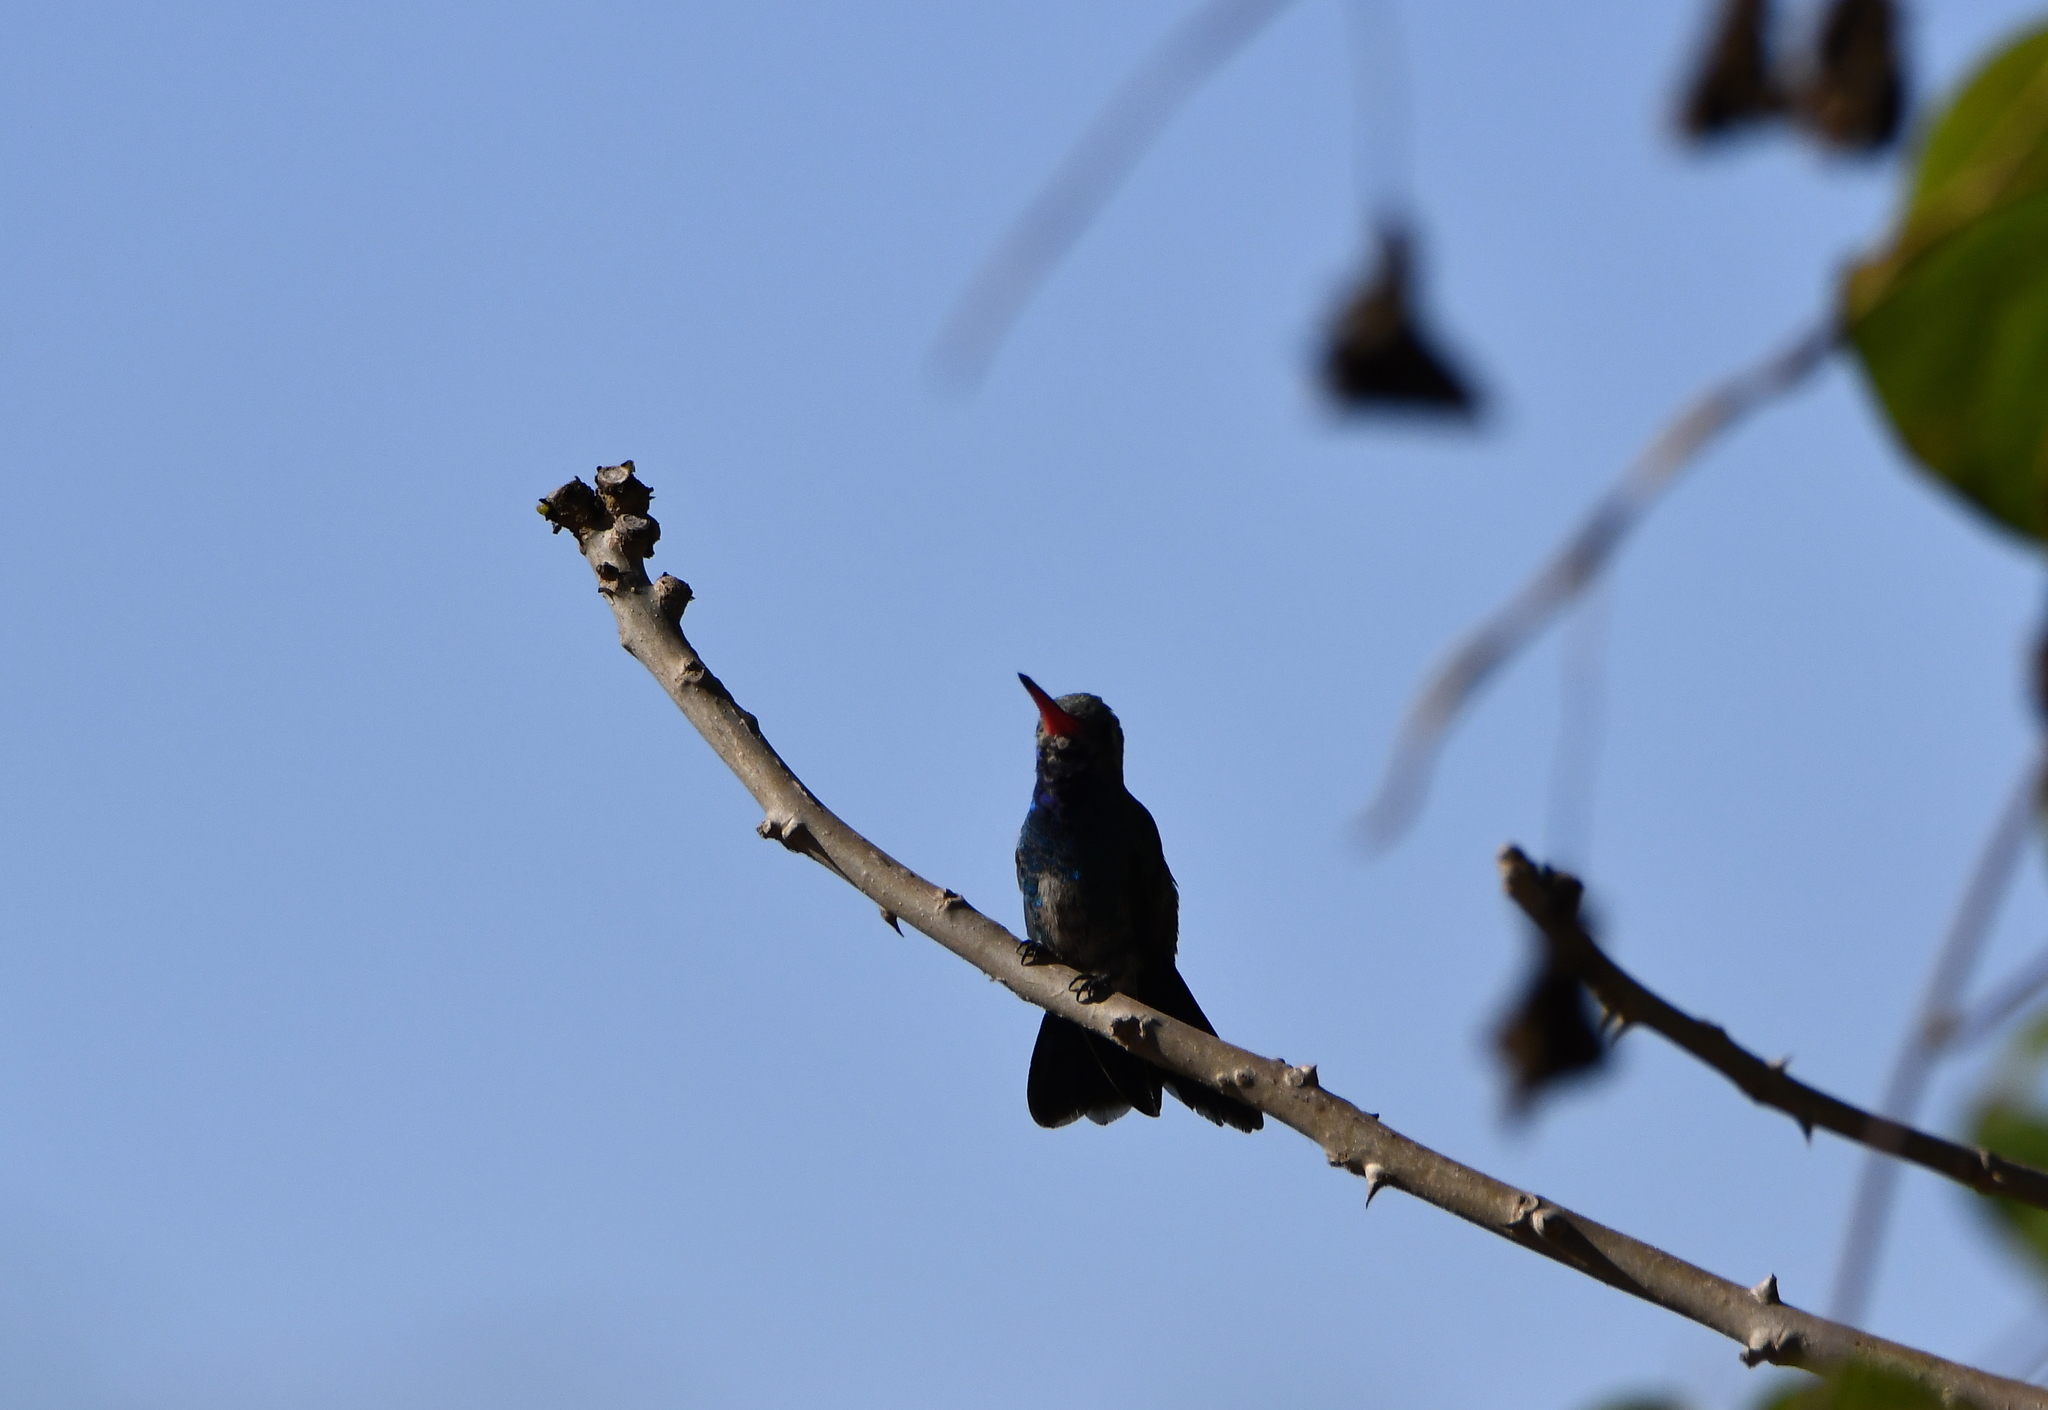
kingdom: Animalia
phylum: Chordata
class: Aves
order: Apodiformes
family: Trochilidae
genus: Cynanthus
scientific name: Cynanthus latirostris
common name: Broad-billed hummingbird
